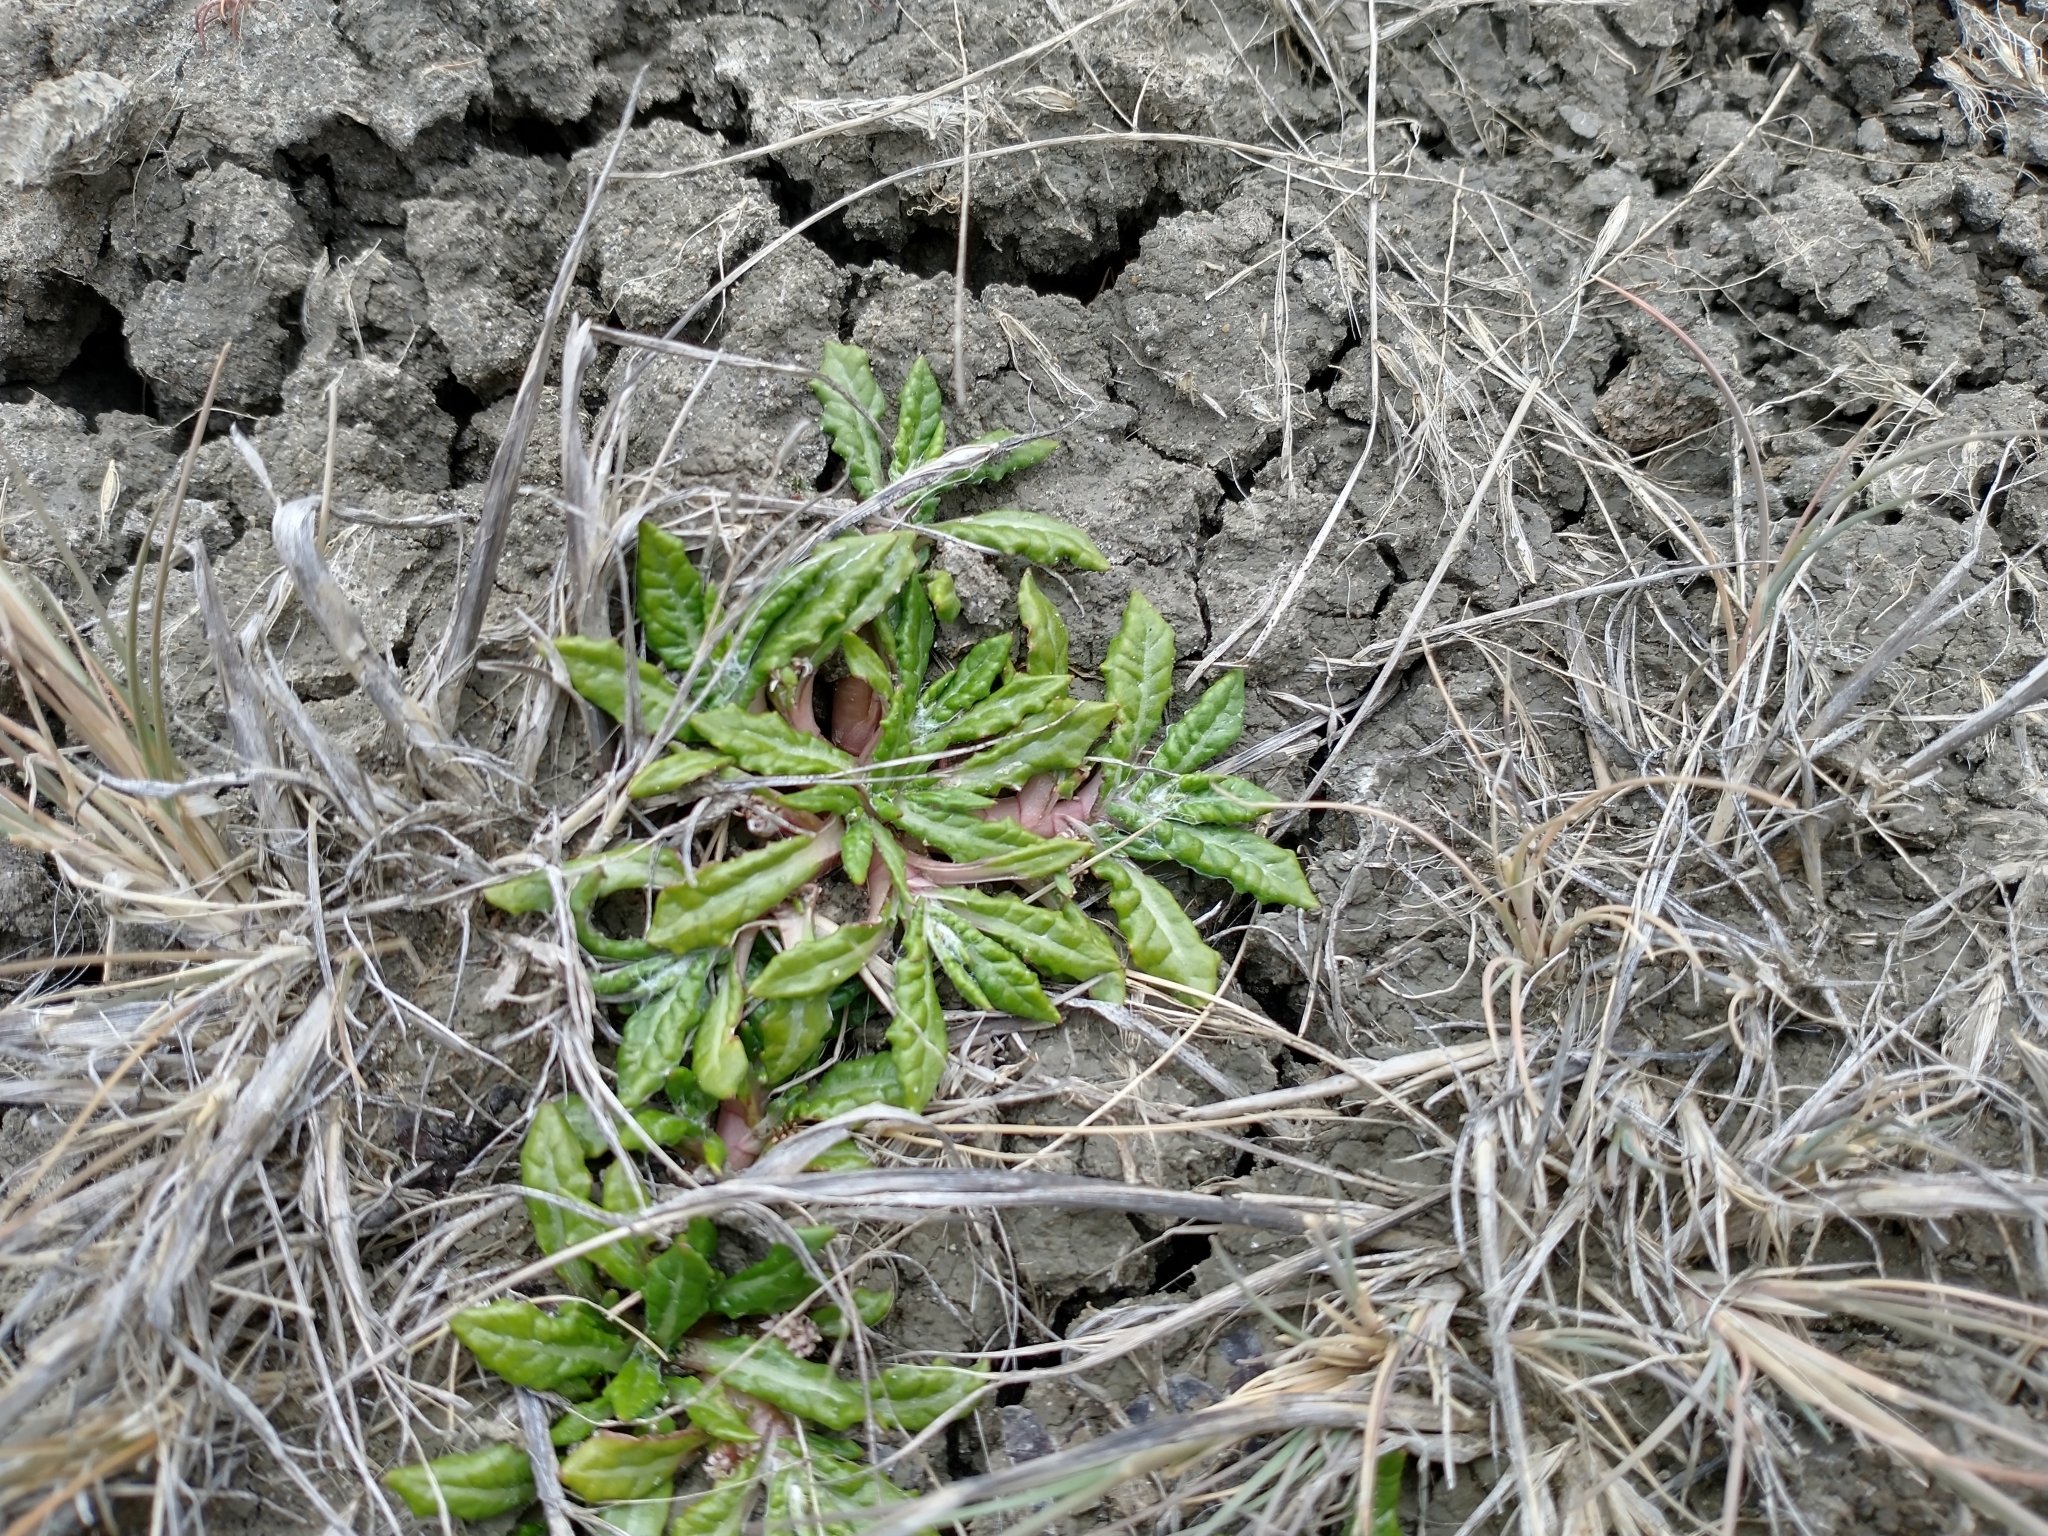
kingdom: Plantae
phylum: Tracheophyta
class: Magnoliopsida
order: Asterales
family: Asteraceae
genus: Eriachaenium
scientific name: Eriachaenium magellanicum
